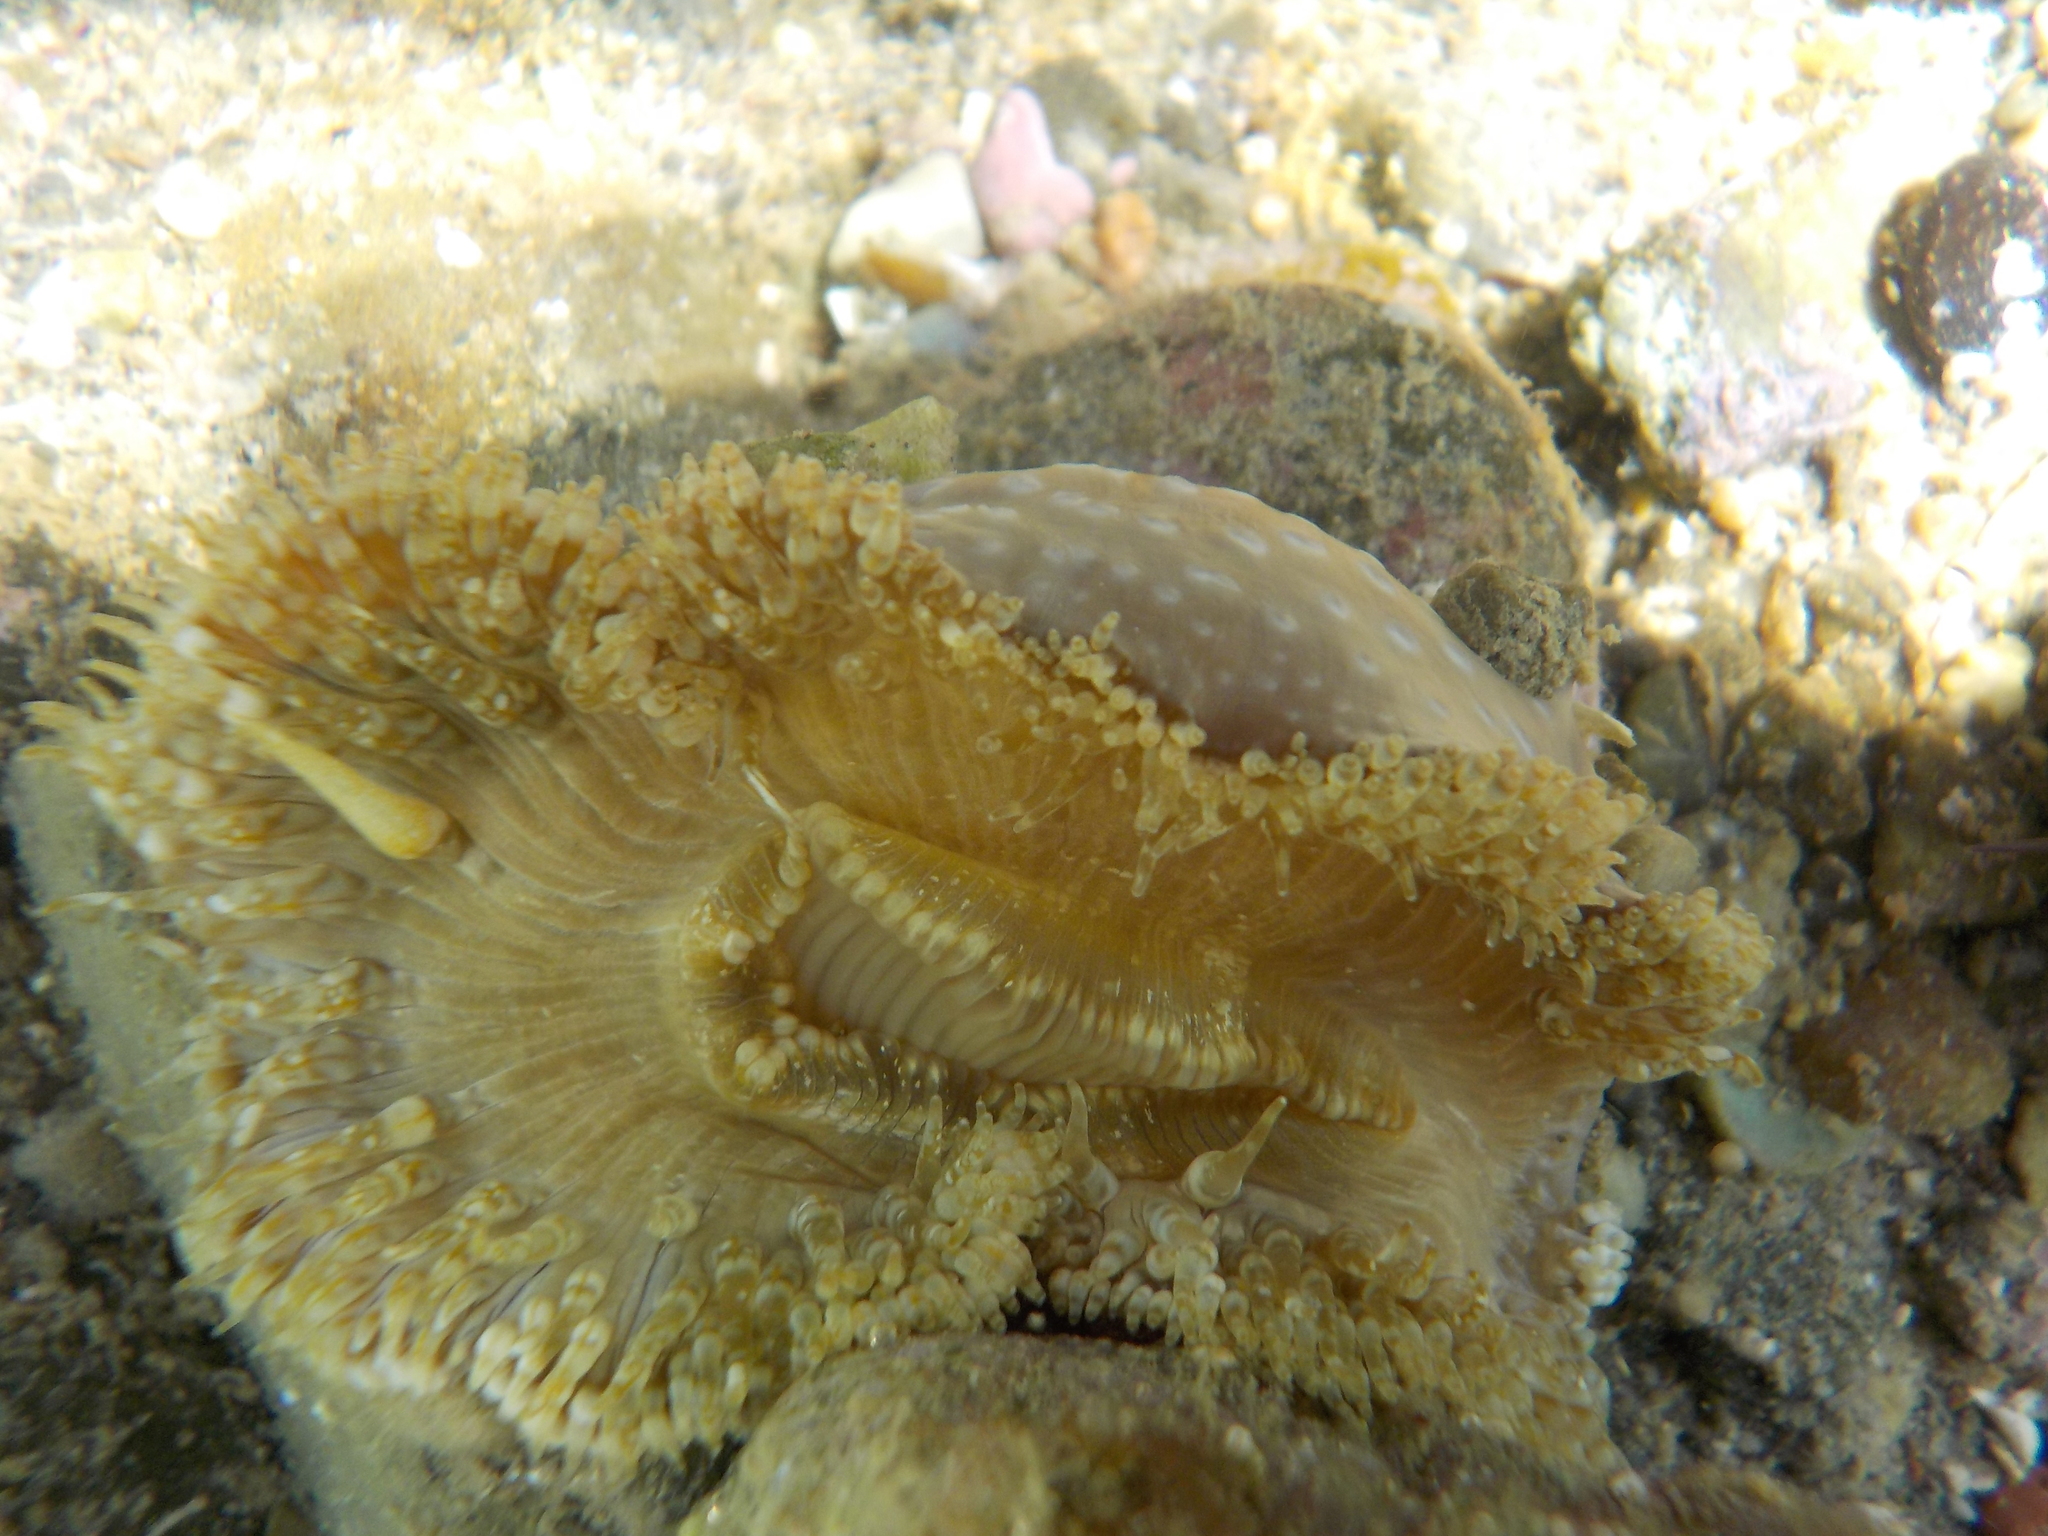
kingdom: Animalia
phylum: Cnidaria
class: Anthozoa
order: Actiniaria
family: Sagartiidae
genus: Cereus
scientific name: Cereus pedunculatus
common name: Daisy anemone
